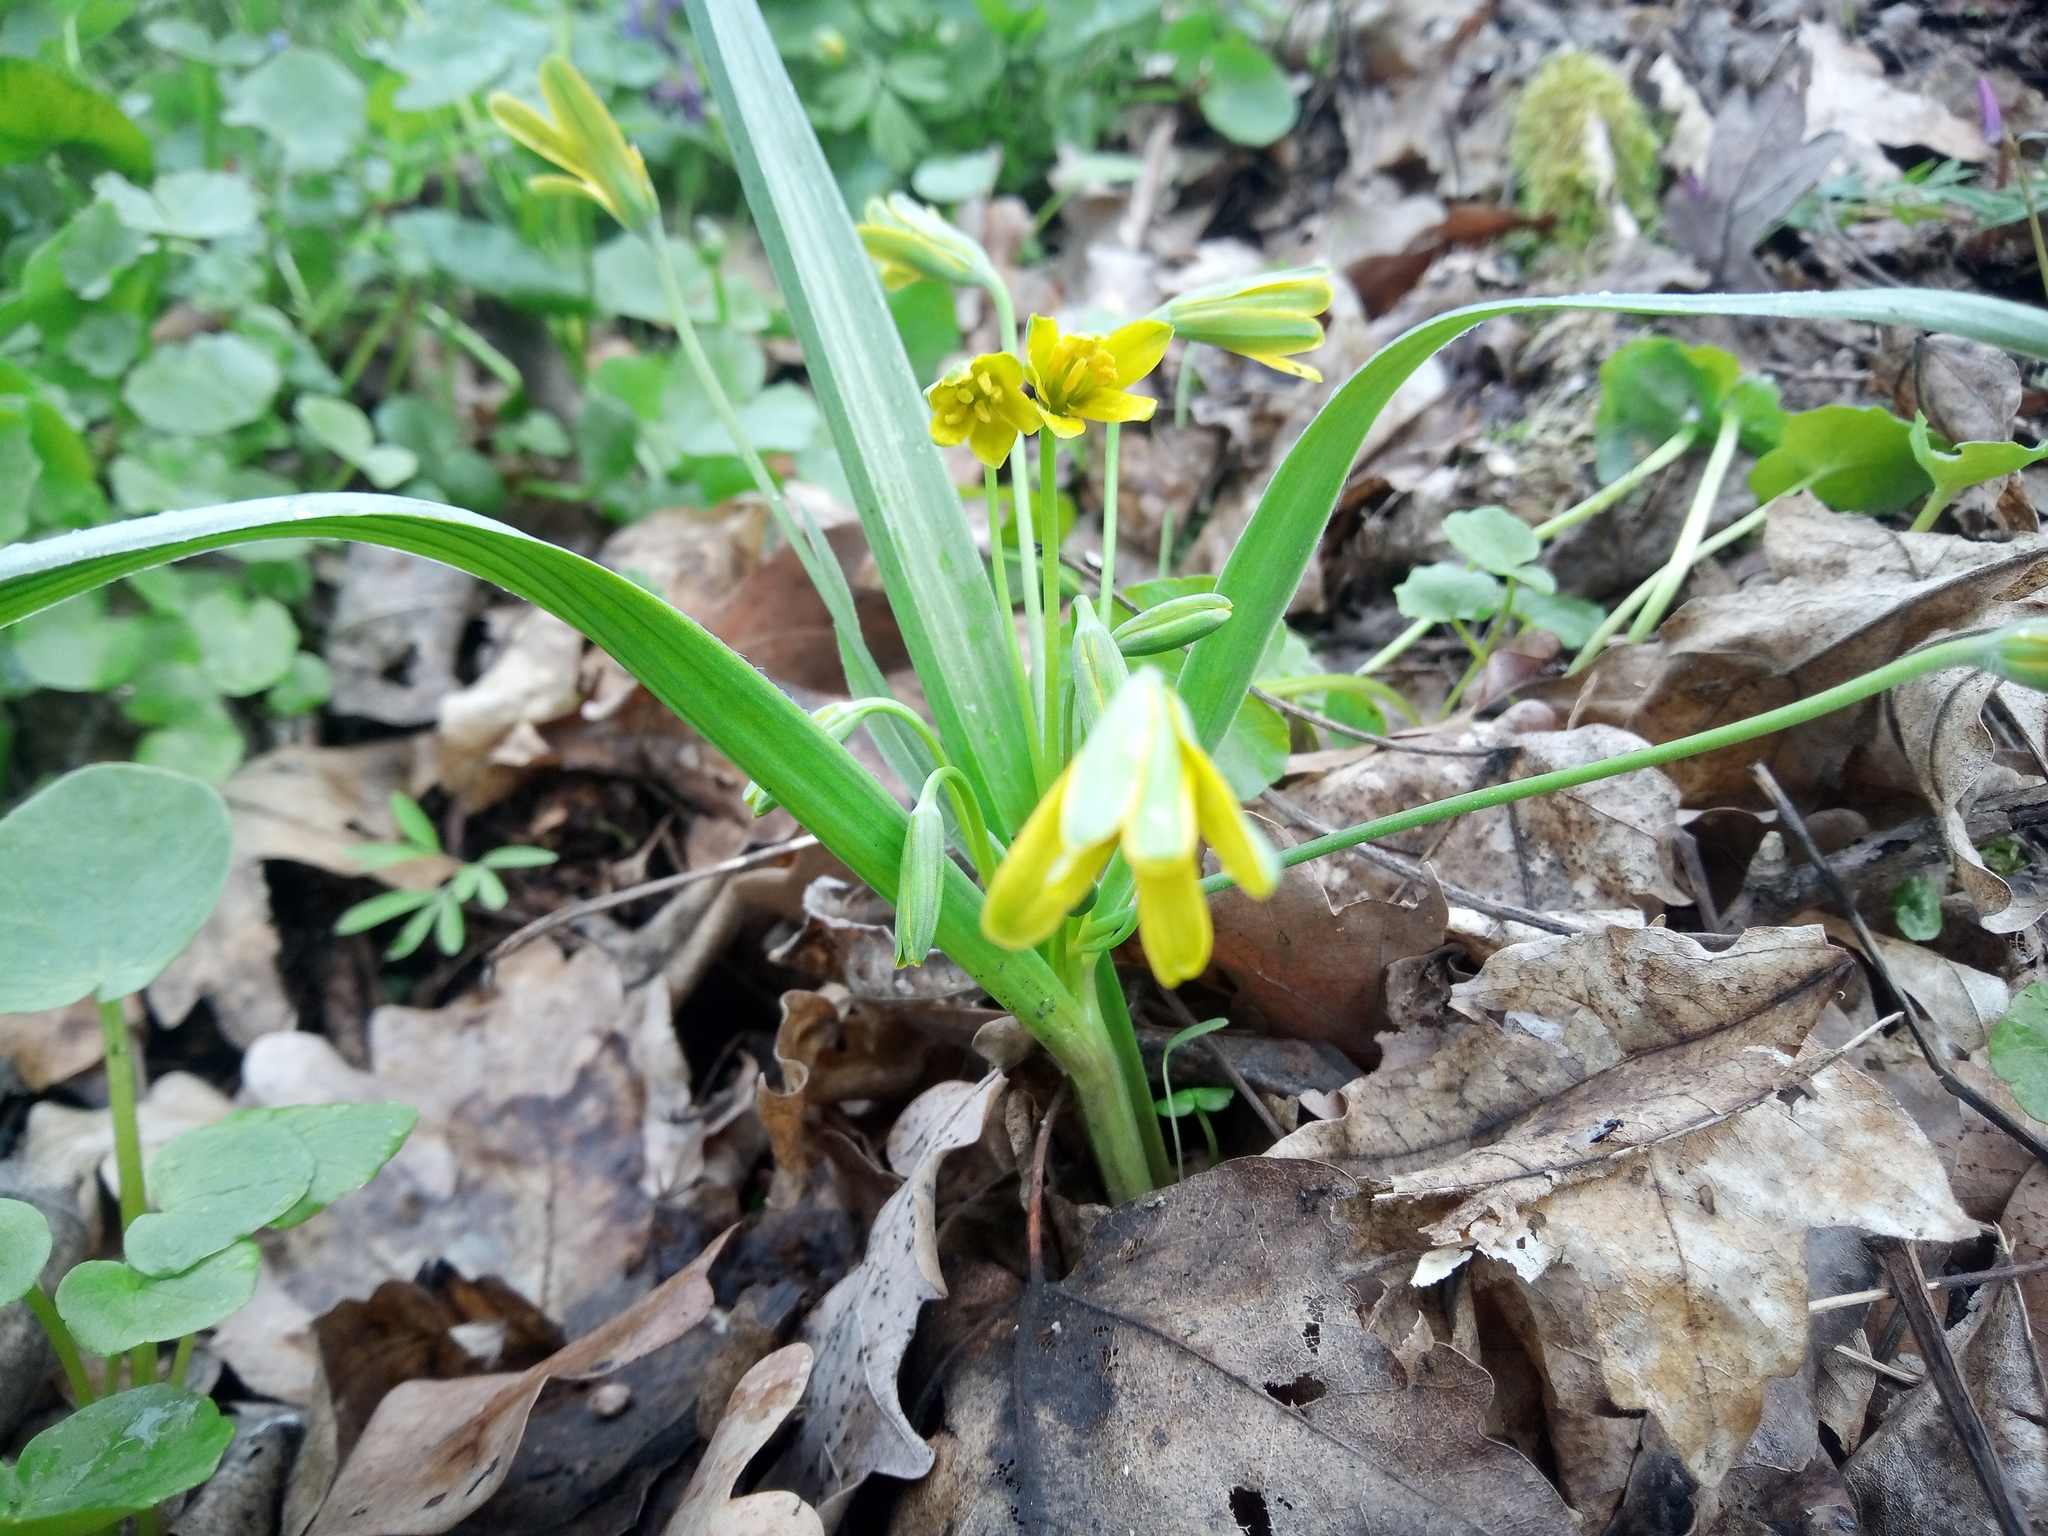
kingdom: Plantae
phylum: Tracheophyta
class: Liliopsida
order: Liliales
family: Liliaceae
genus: Gagea
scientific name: Gagea lutea
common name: Yellow star-of-bethlehem
